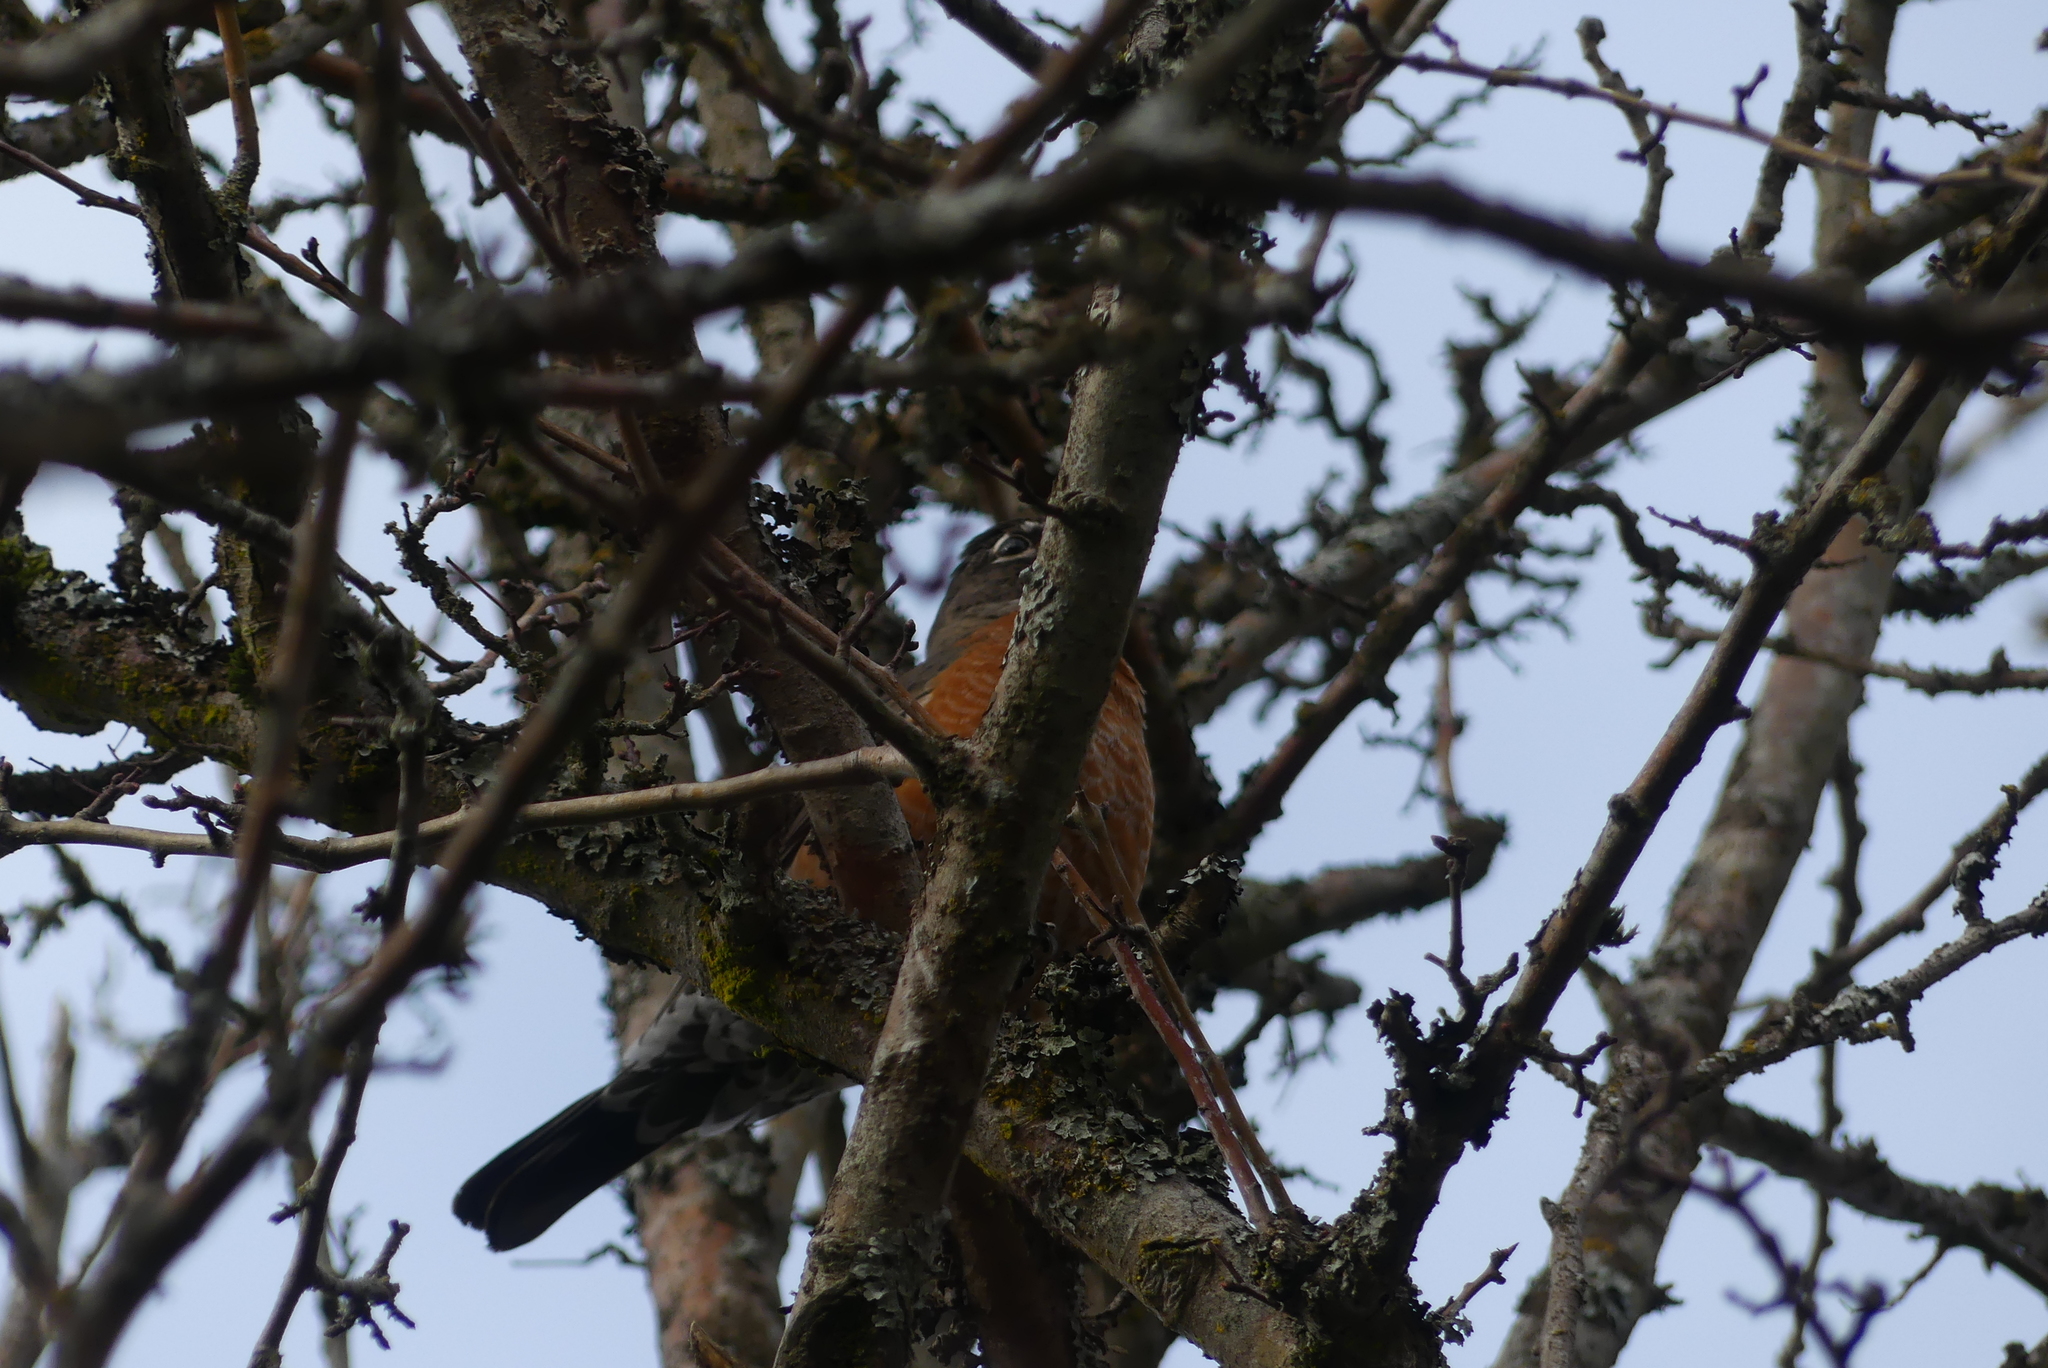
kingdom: Animalia
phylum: Chordata
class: Aves
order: Passeriformes
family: Turdidae
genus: Turdus
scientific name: Turdus migratorius
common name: American robin
